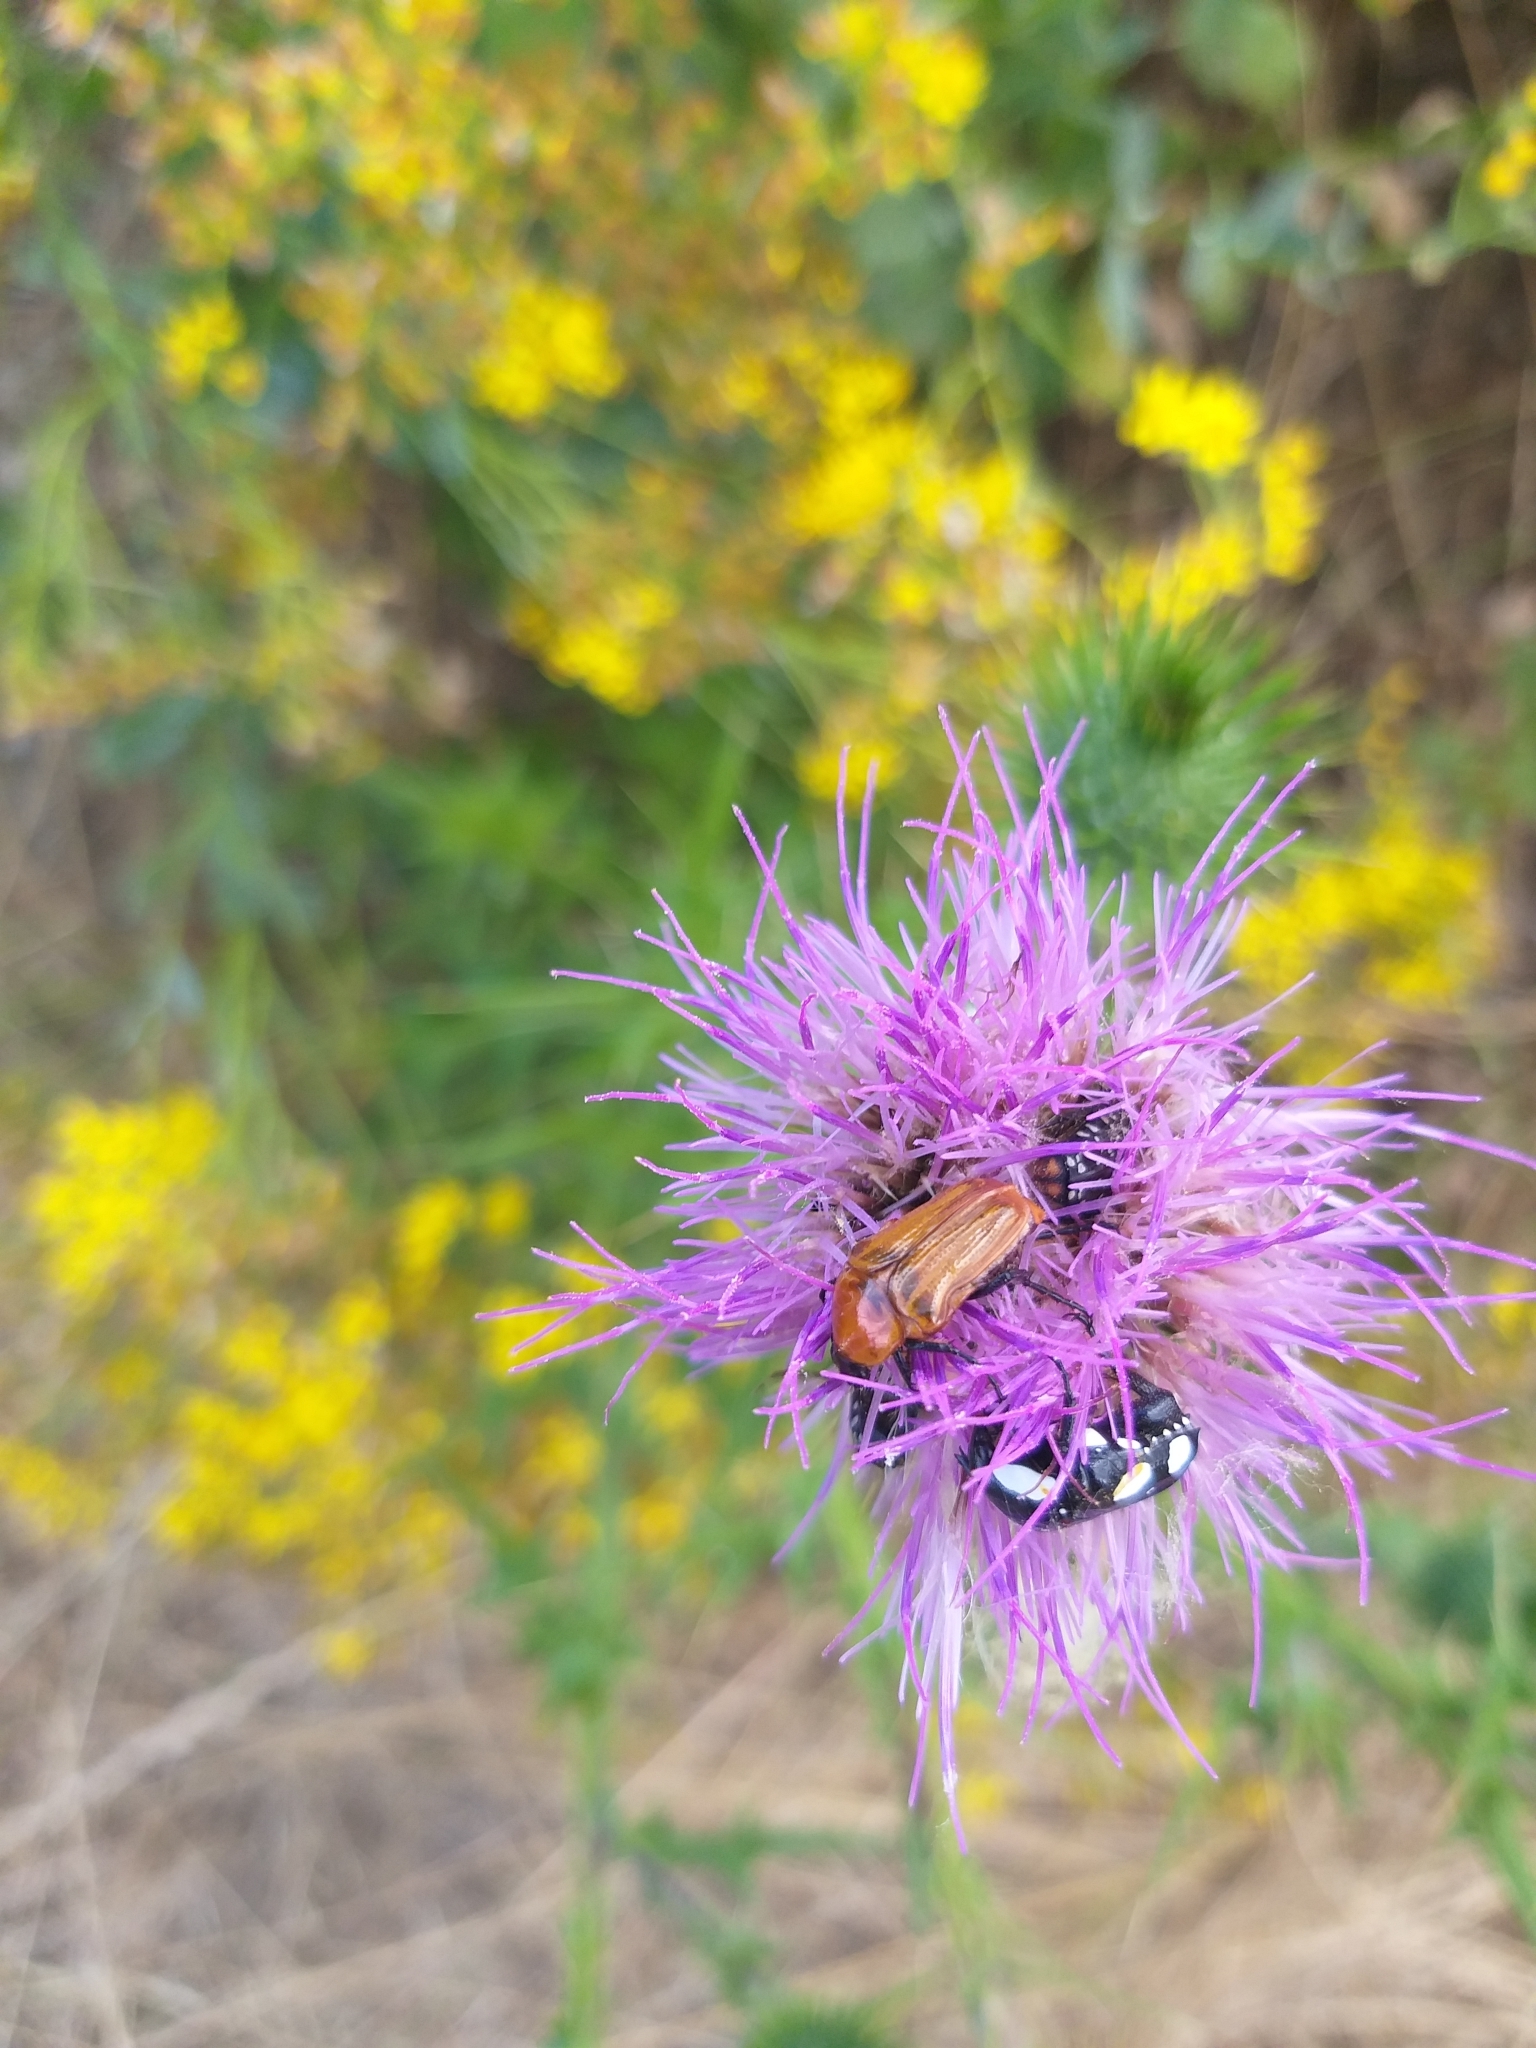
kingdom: Animalia
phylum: Arthropoda
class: Insecta
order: Coleoptera
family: Scarabaeidae
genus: Leucocelis
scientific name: Leucocelis rubra
